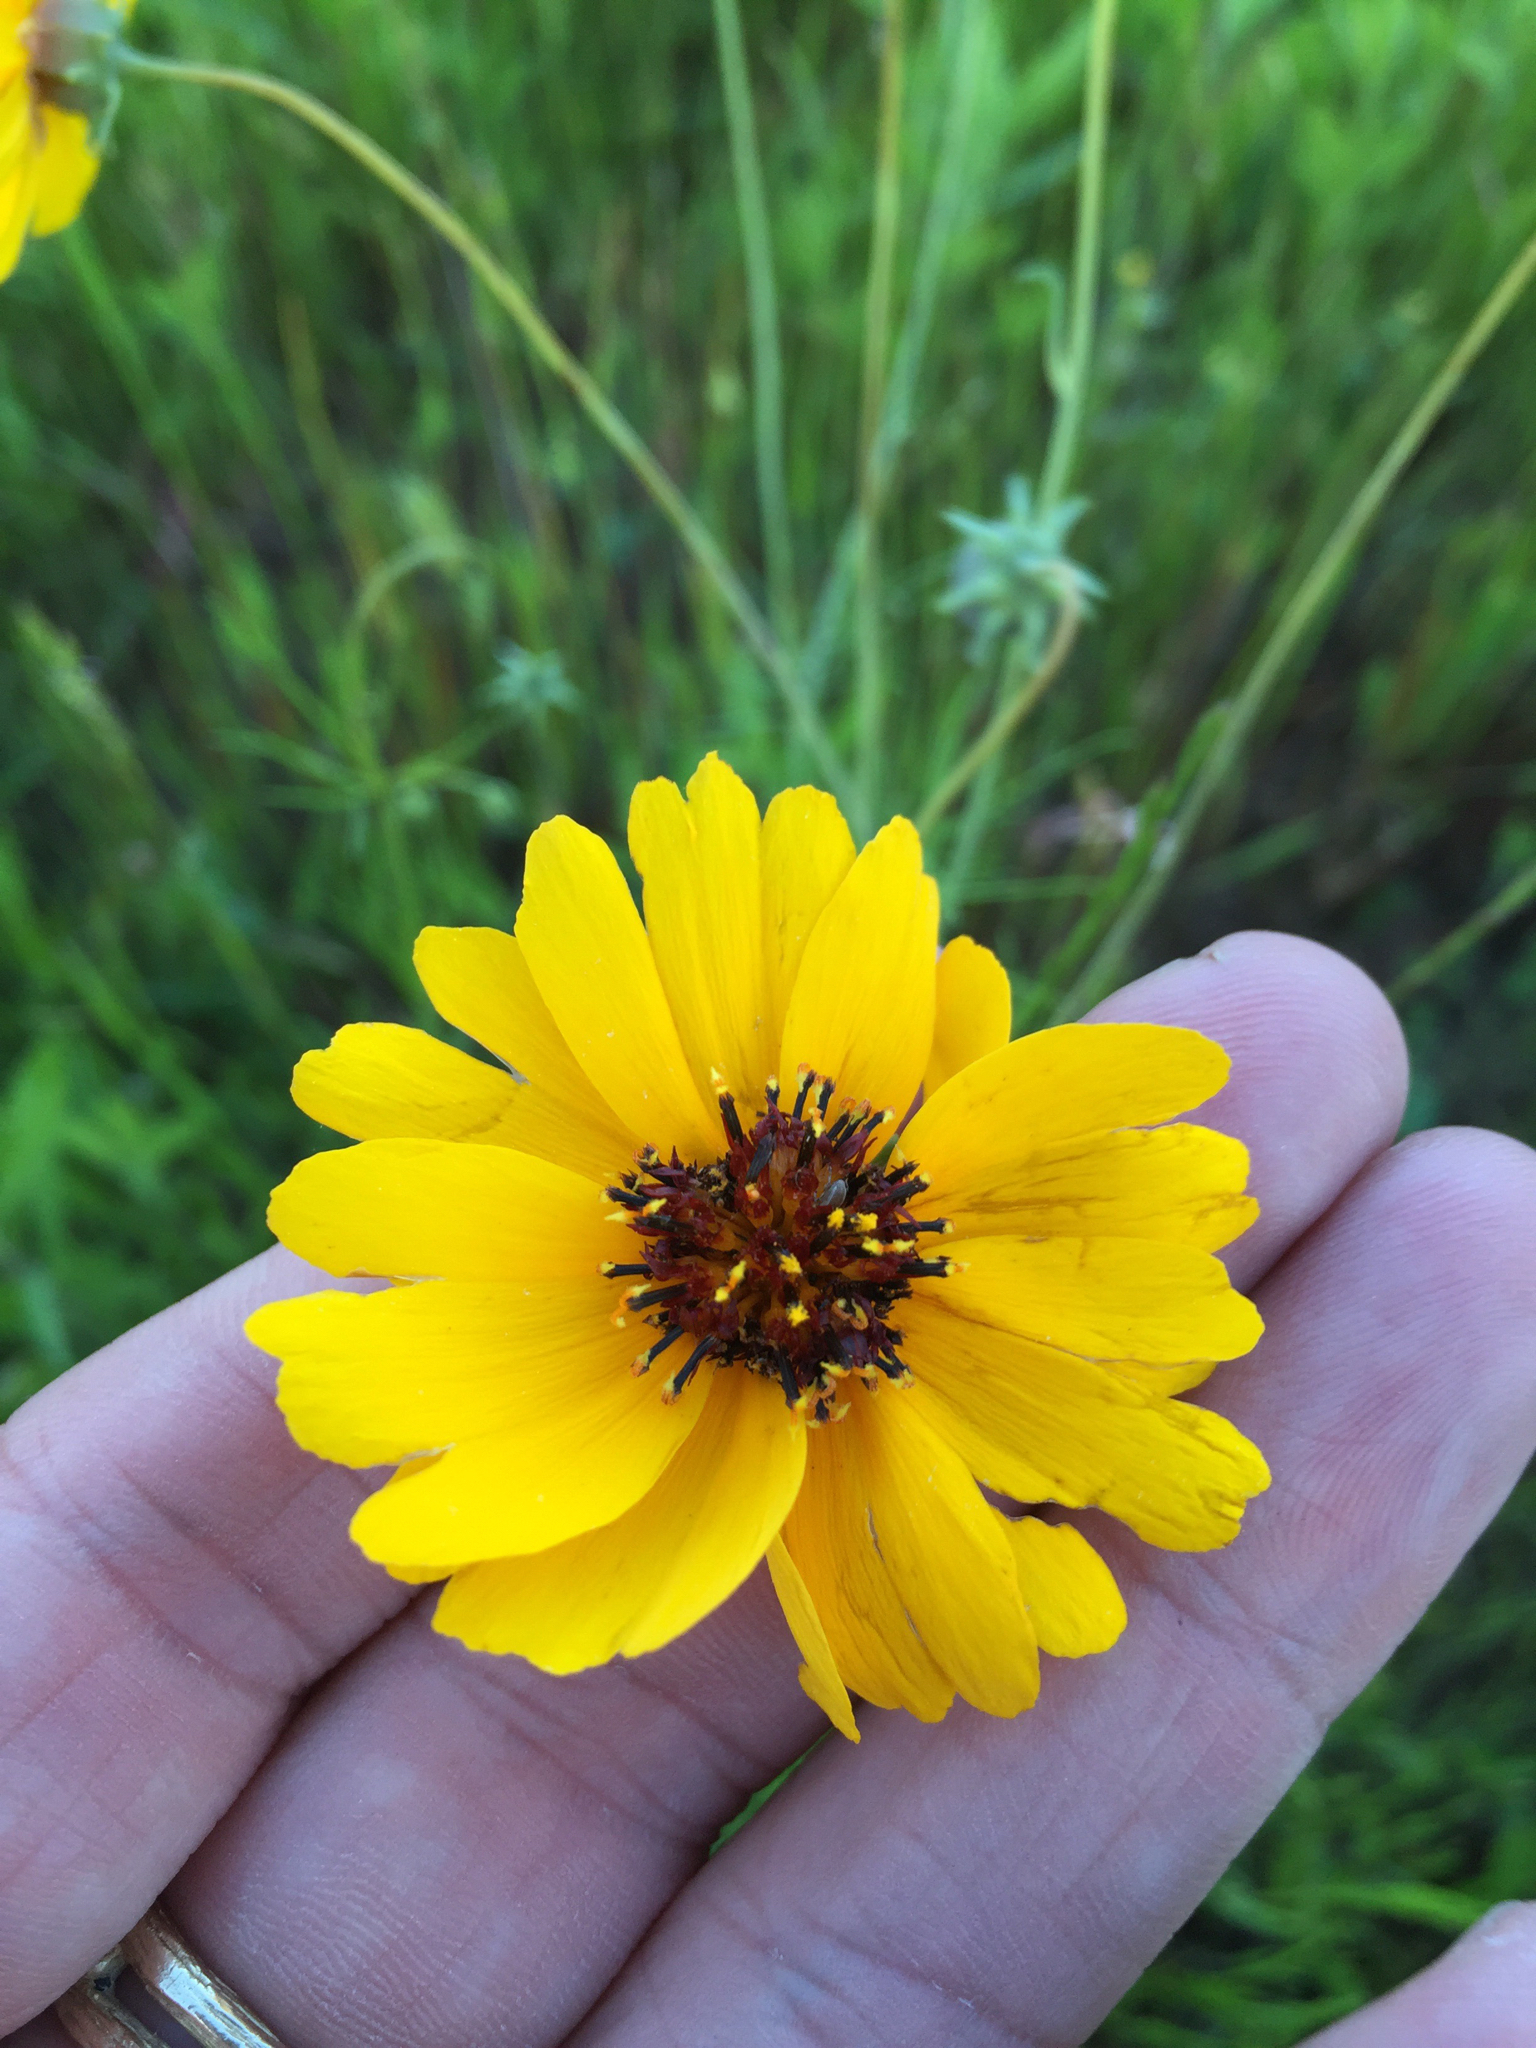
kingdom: Plantae
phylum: Tracheophyta
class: Magnoliopsida
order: Asterales
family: Asteraceae
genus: Thelesperma
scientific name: Thelesperma filifolium
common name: Stiff greenthread
